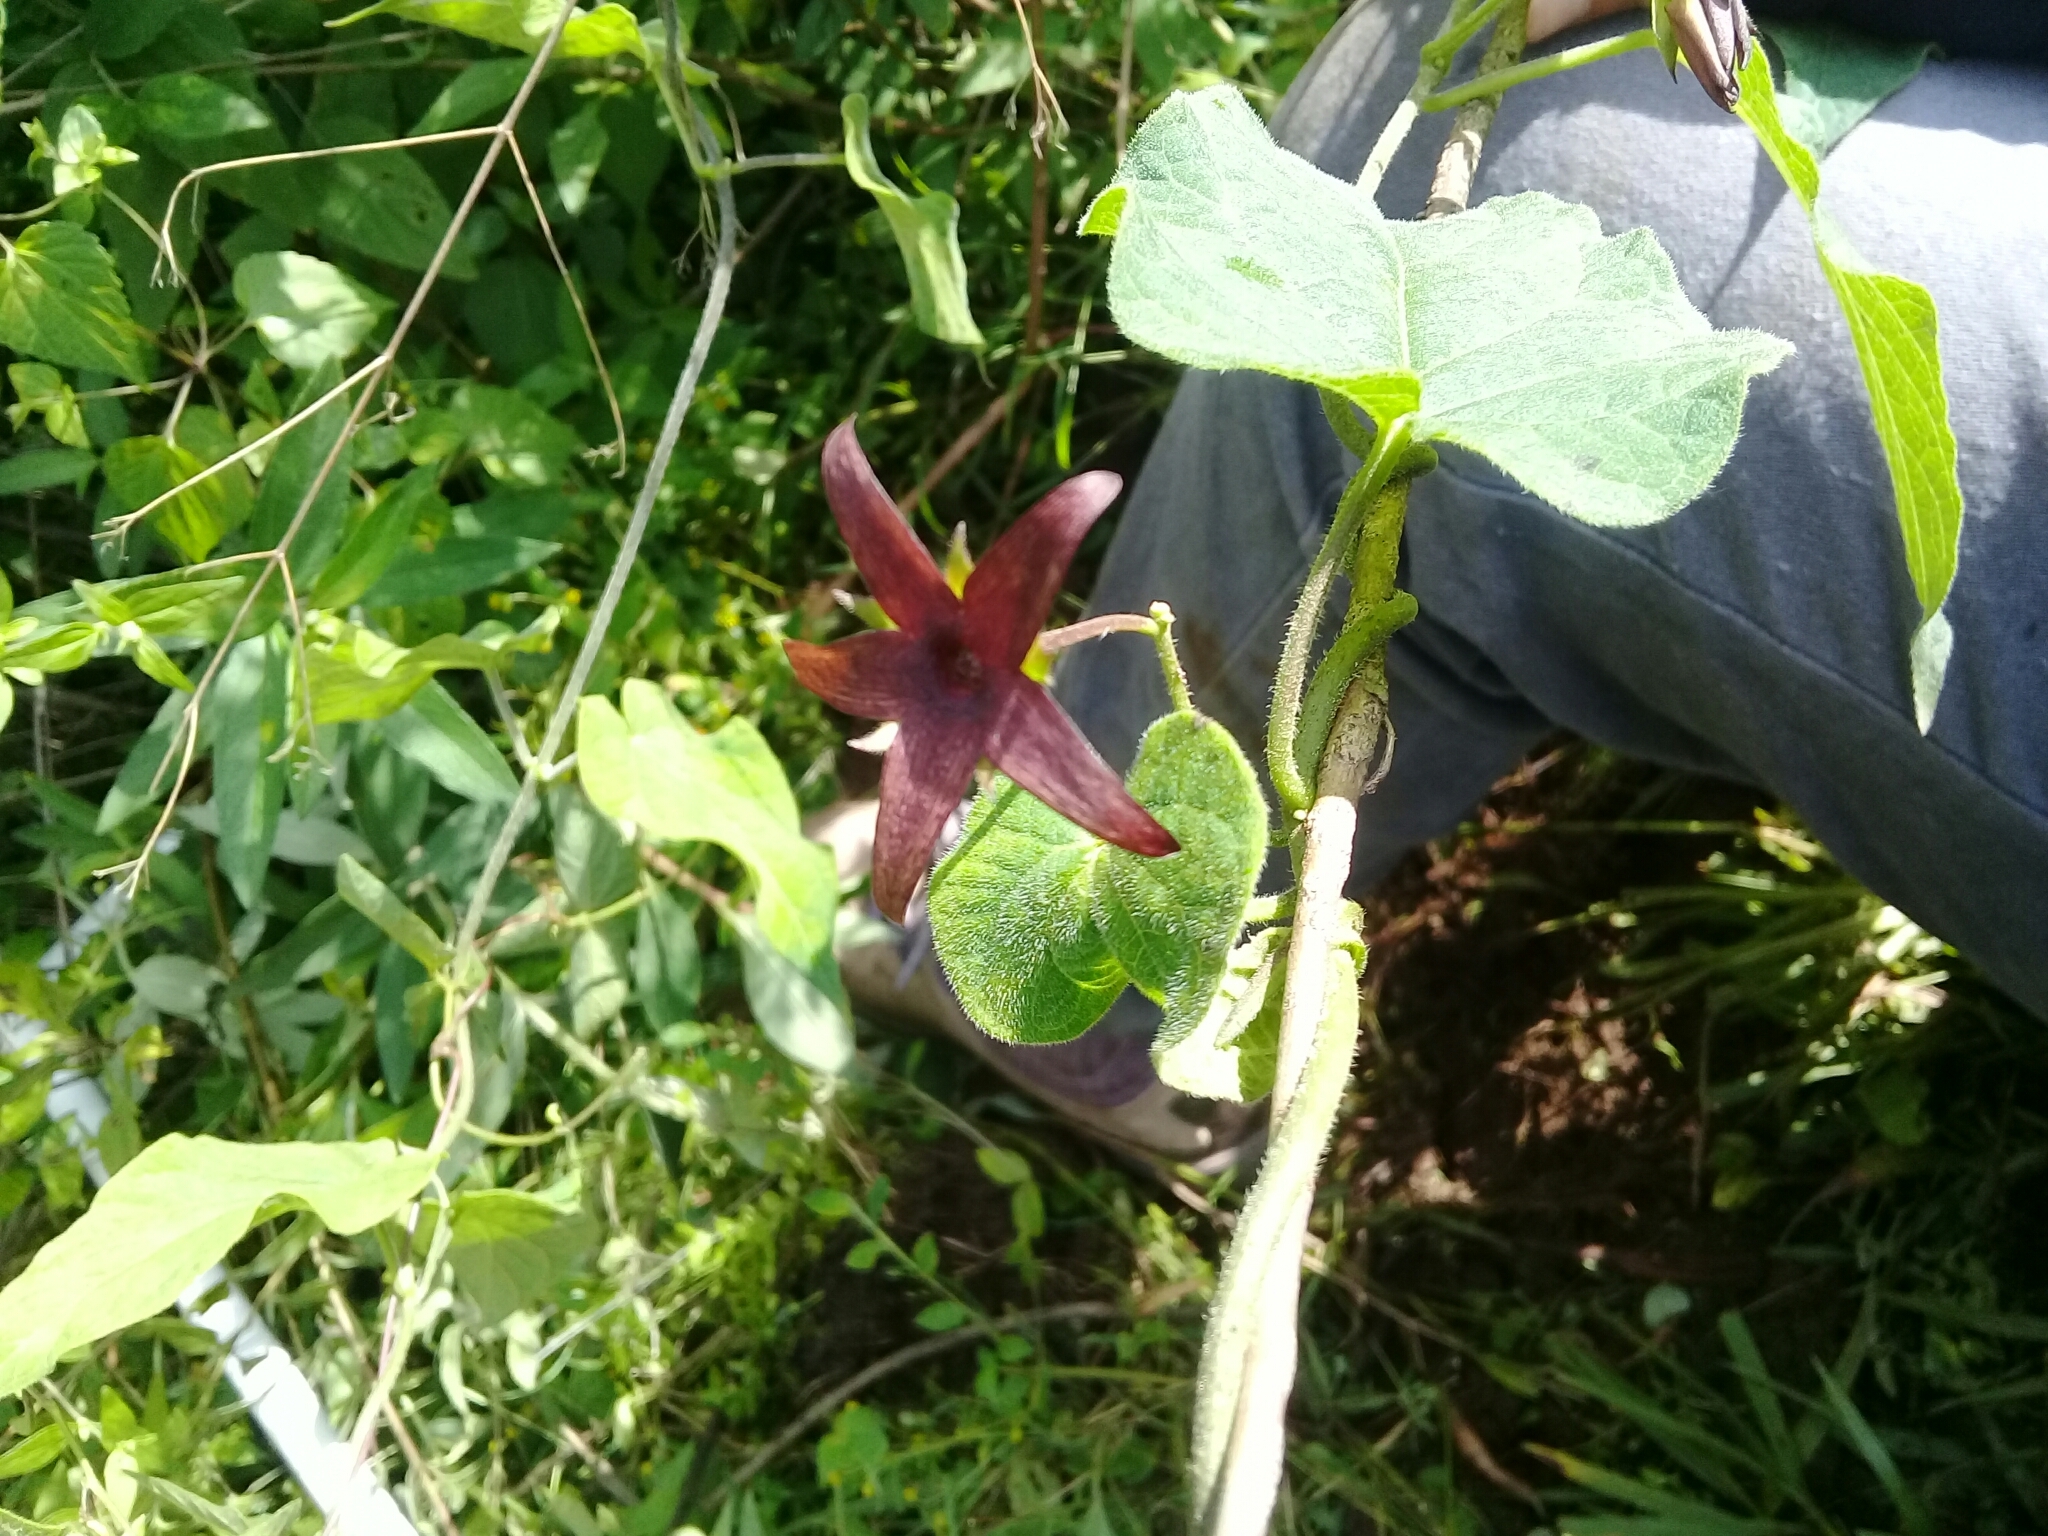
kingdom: Plantae
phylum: Tracheophyta
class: Magnoliopsida
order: Gentianales
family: Apocynaceae
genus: Matelea
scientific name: Matelea pilosa
